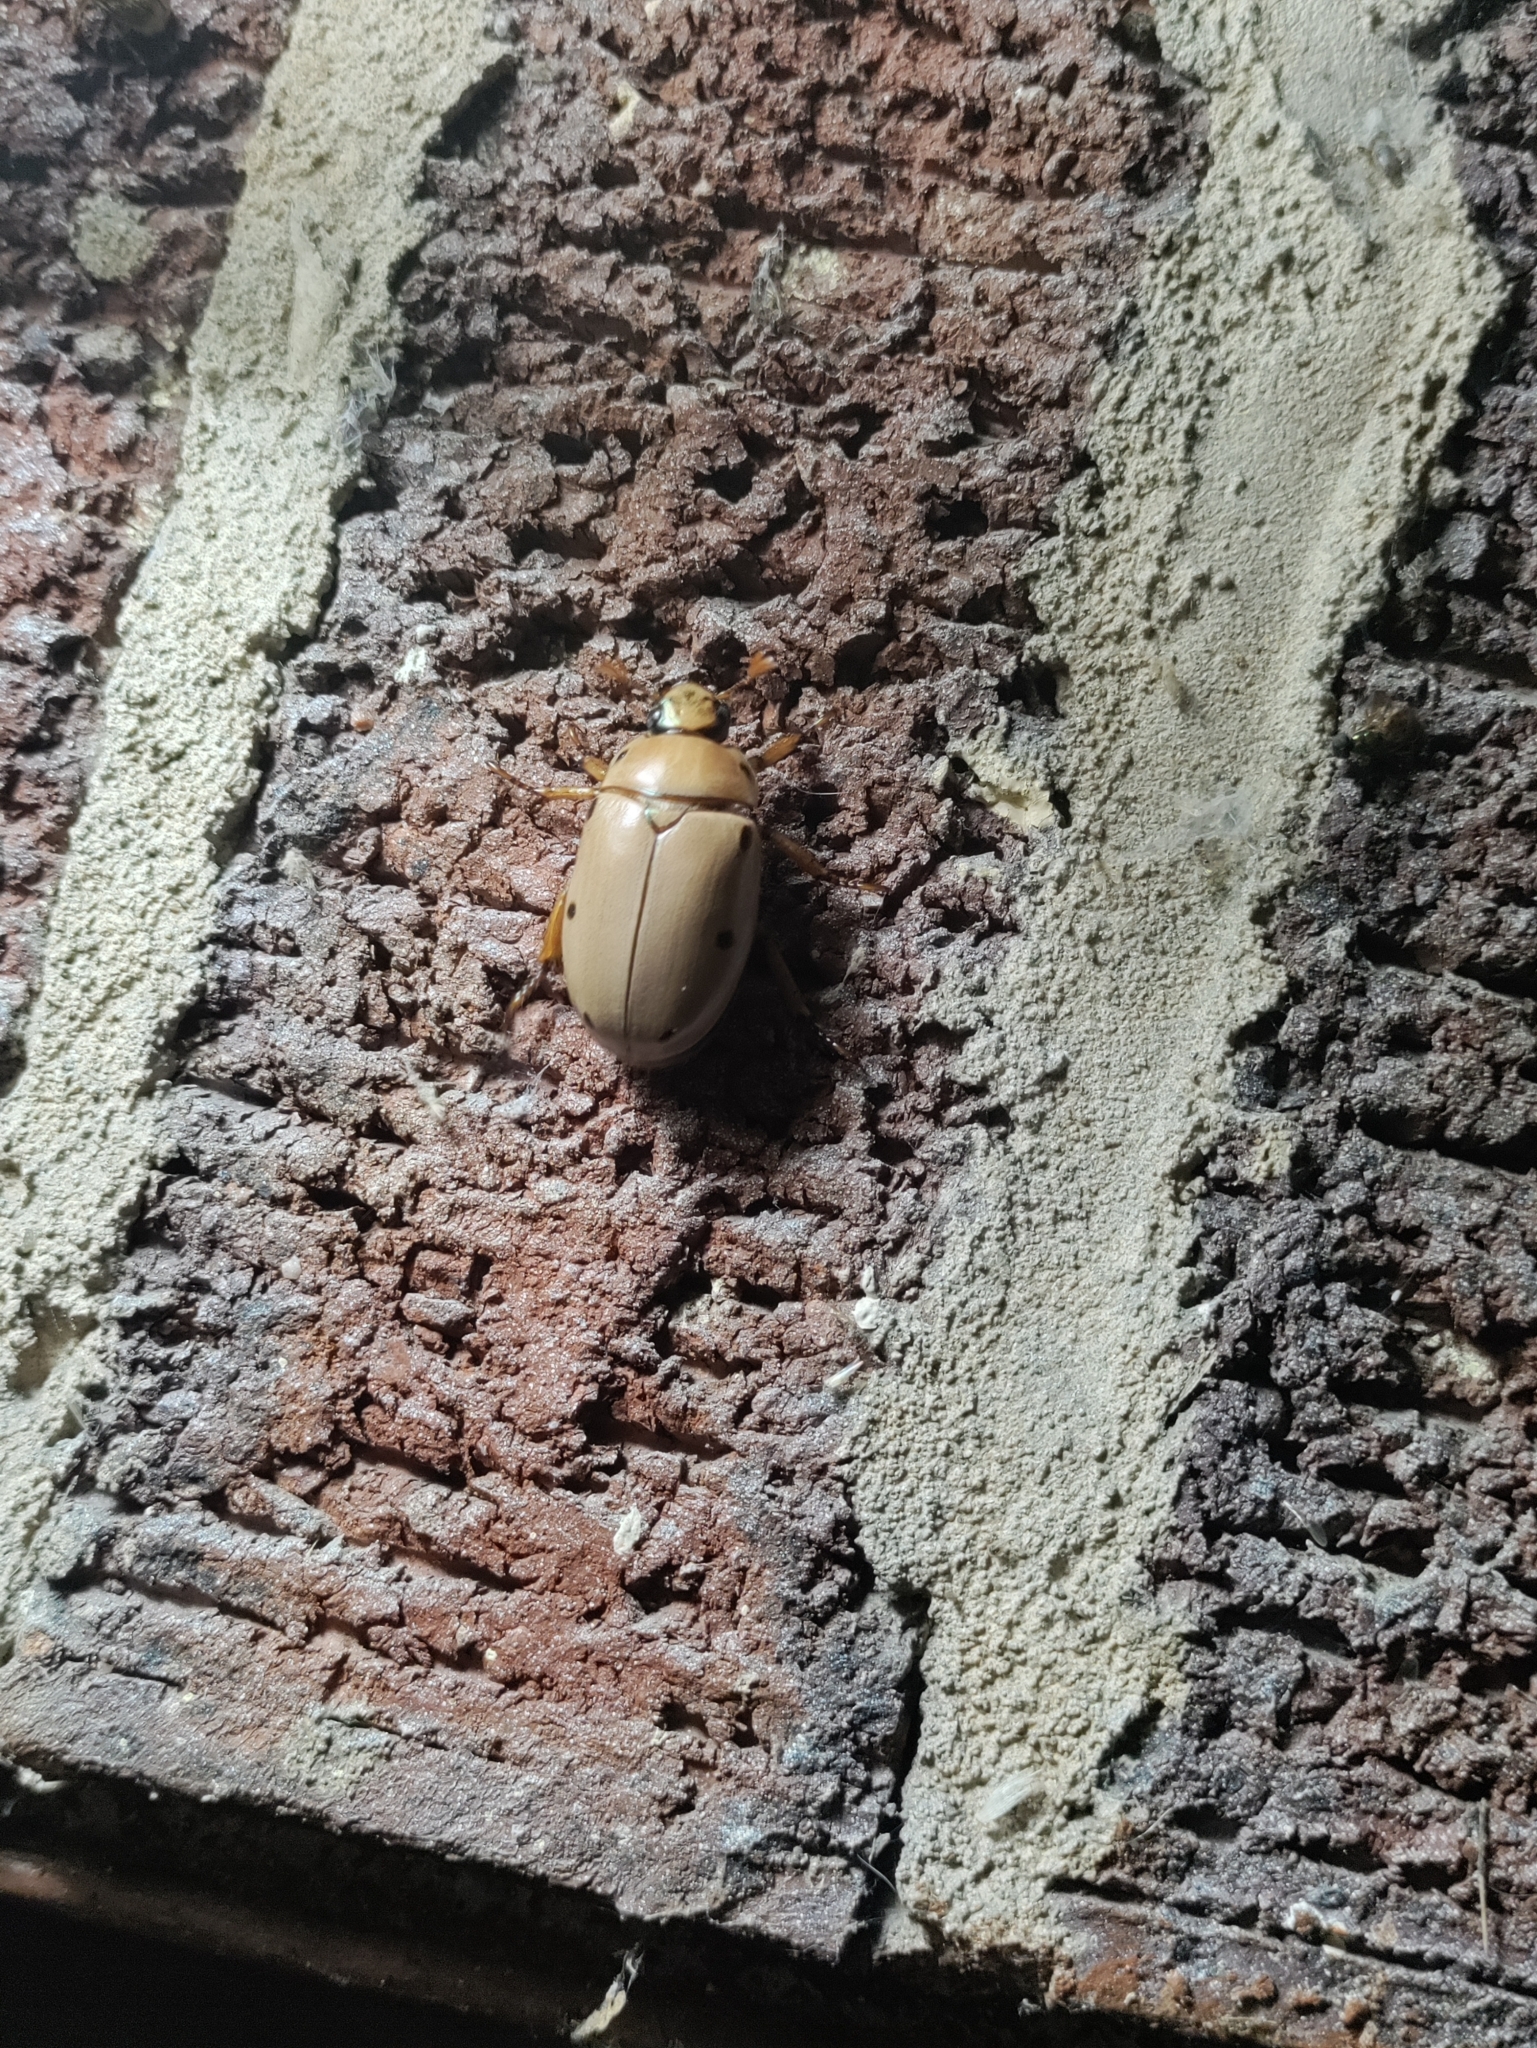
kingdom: Animalia
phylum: Arthropoda
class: Insecta
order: Coleoptera
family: Scarabaeidae
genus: Pelidnota
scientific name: Pelidnota punctata
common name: Grapevine beetle
